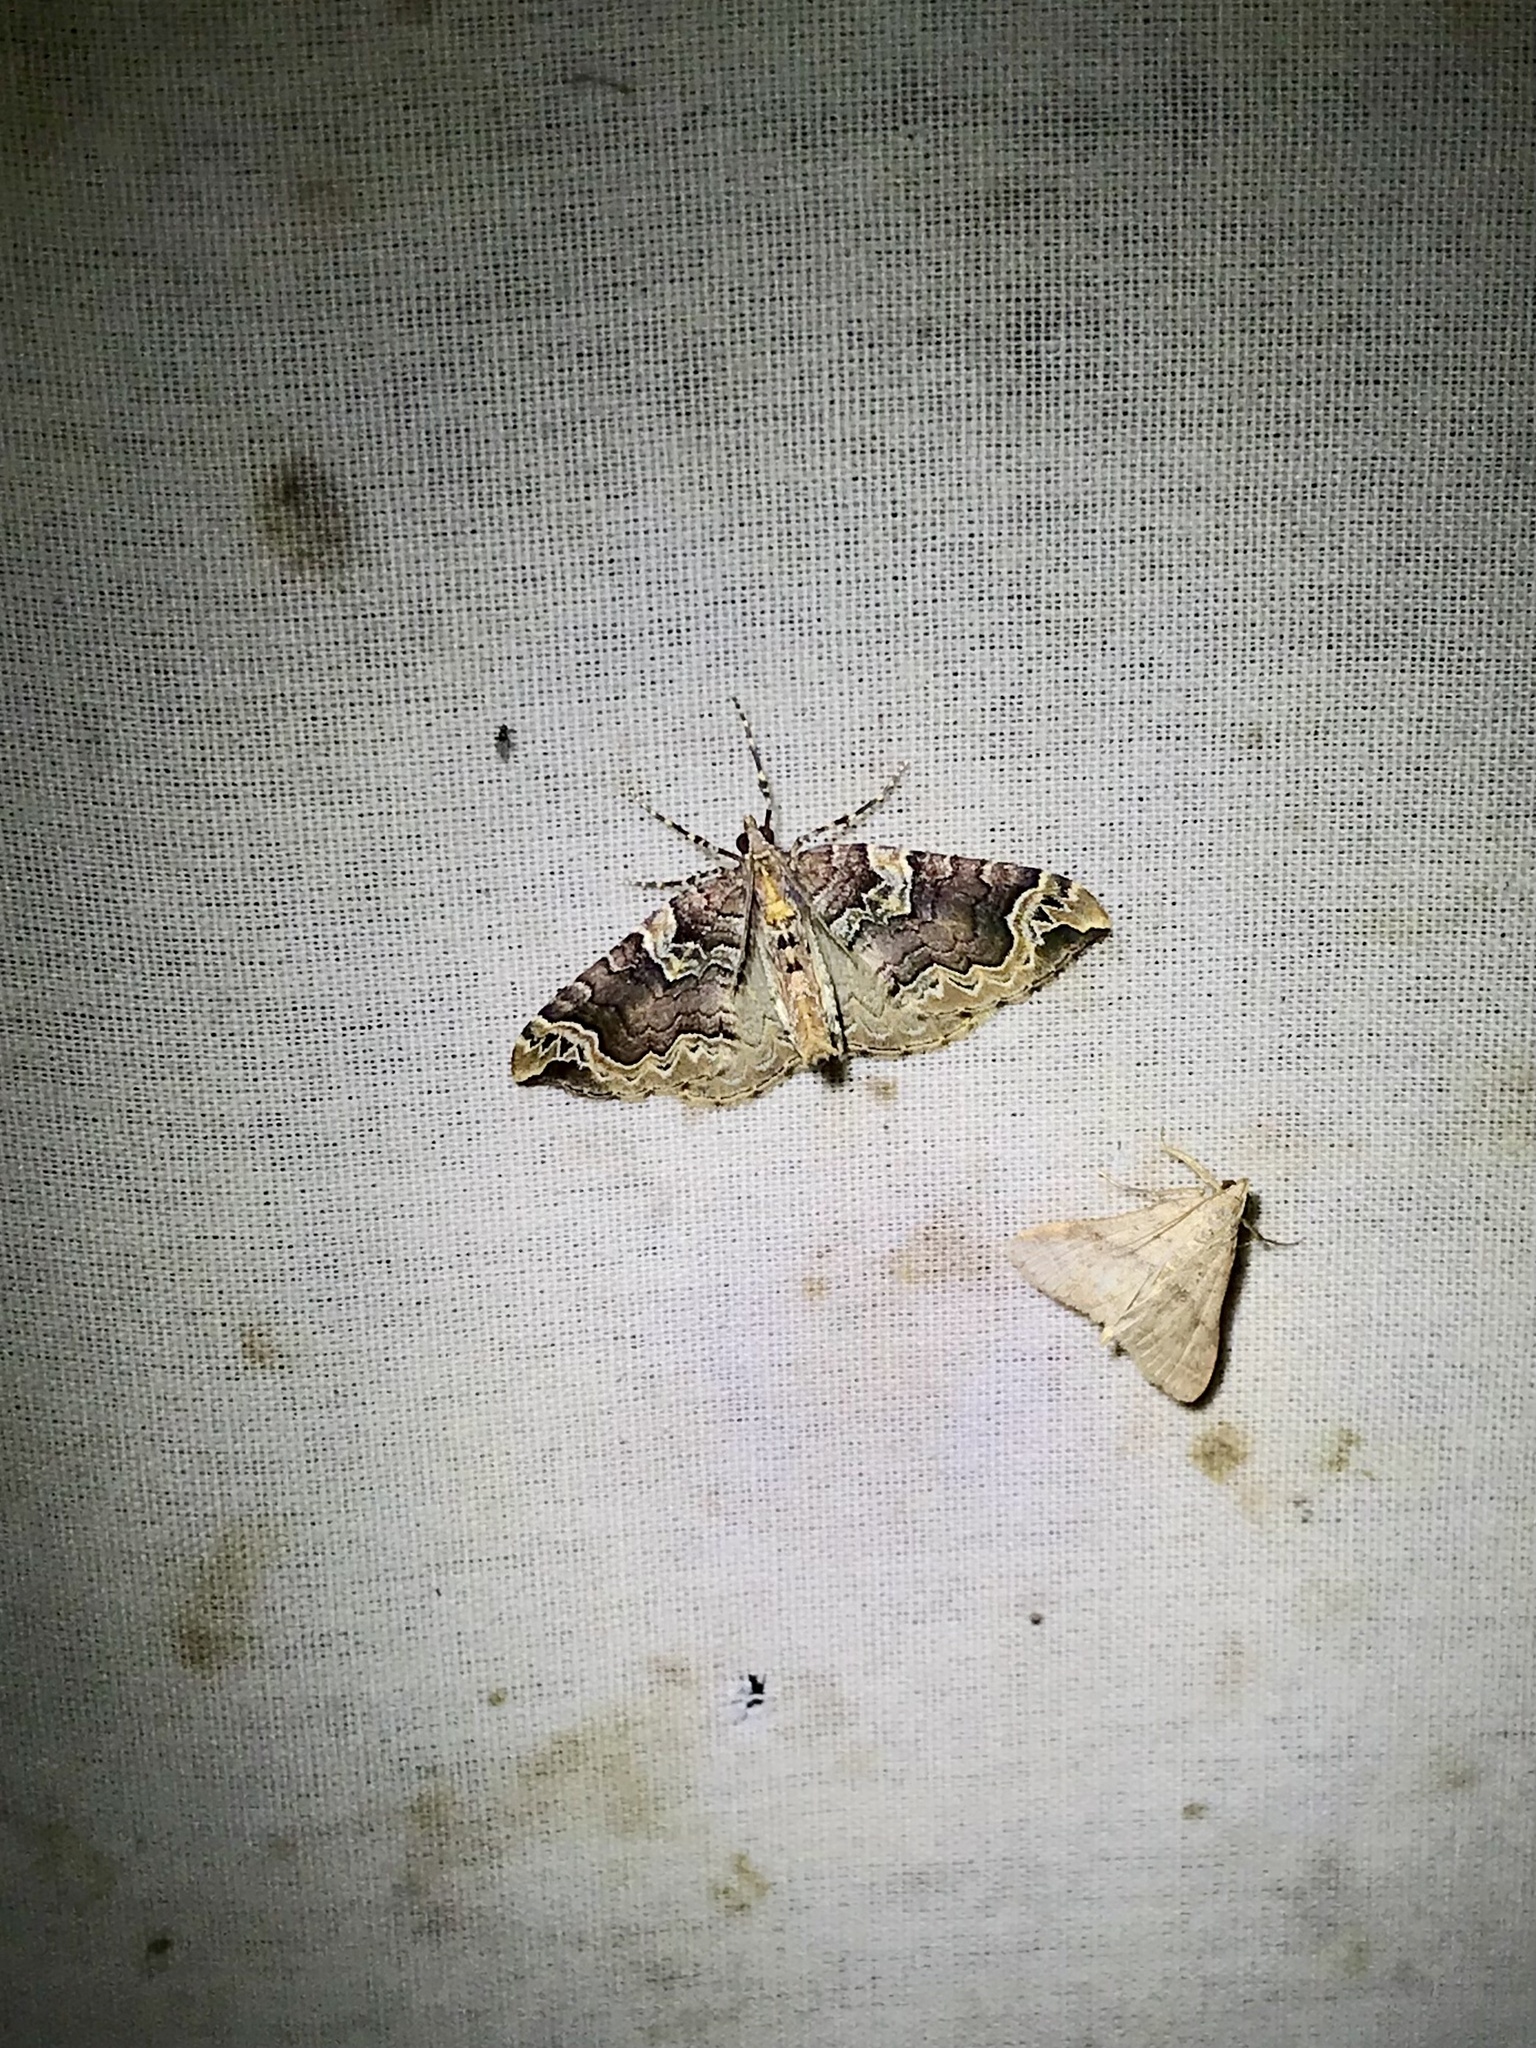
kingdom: Animalia
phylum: Arthropoda
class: Insecta
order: Lepidoptera
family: Geometridae
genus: Eulithis
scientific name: Eulithis serrataria
